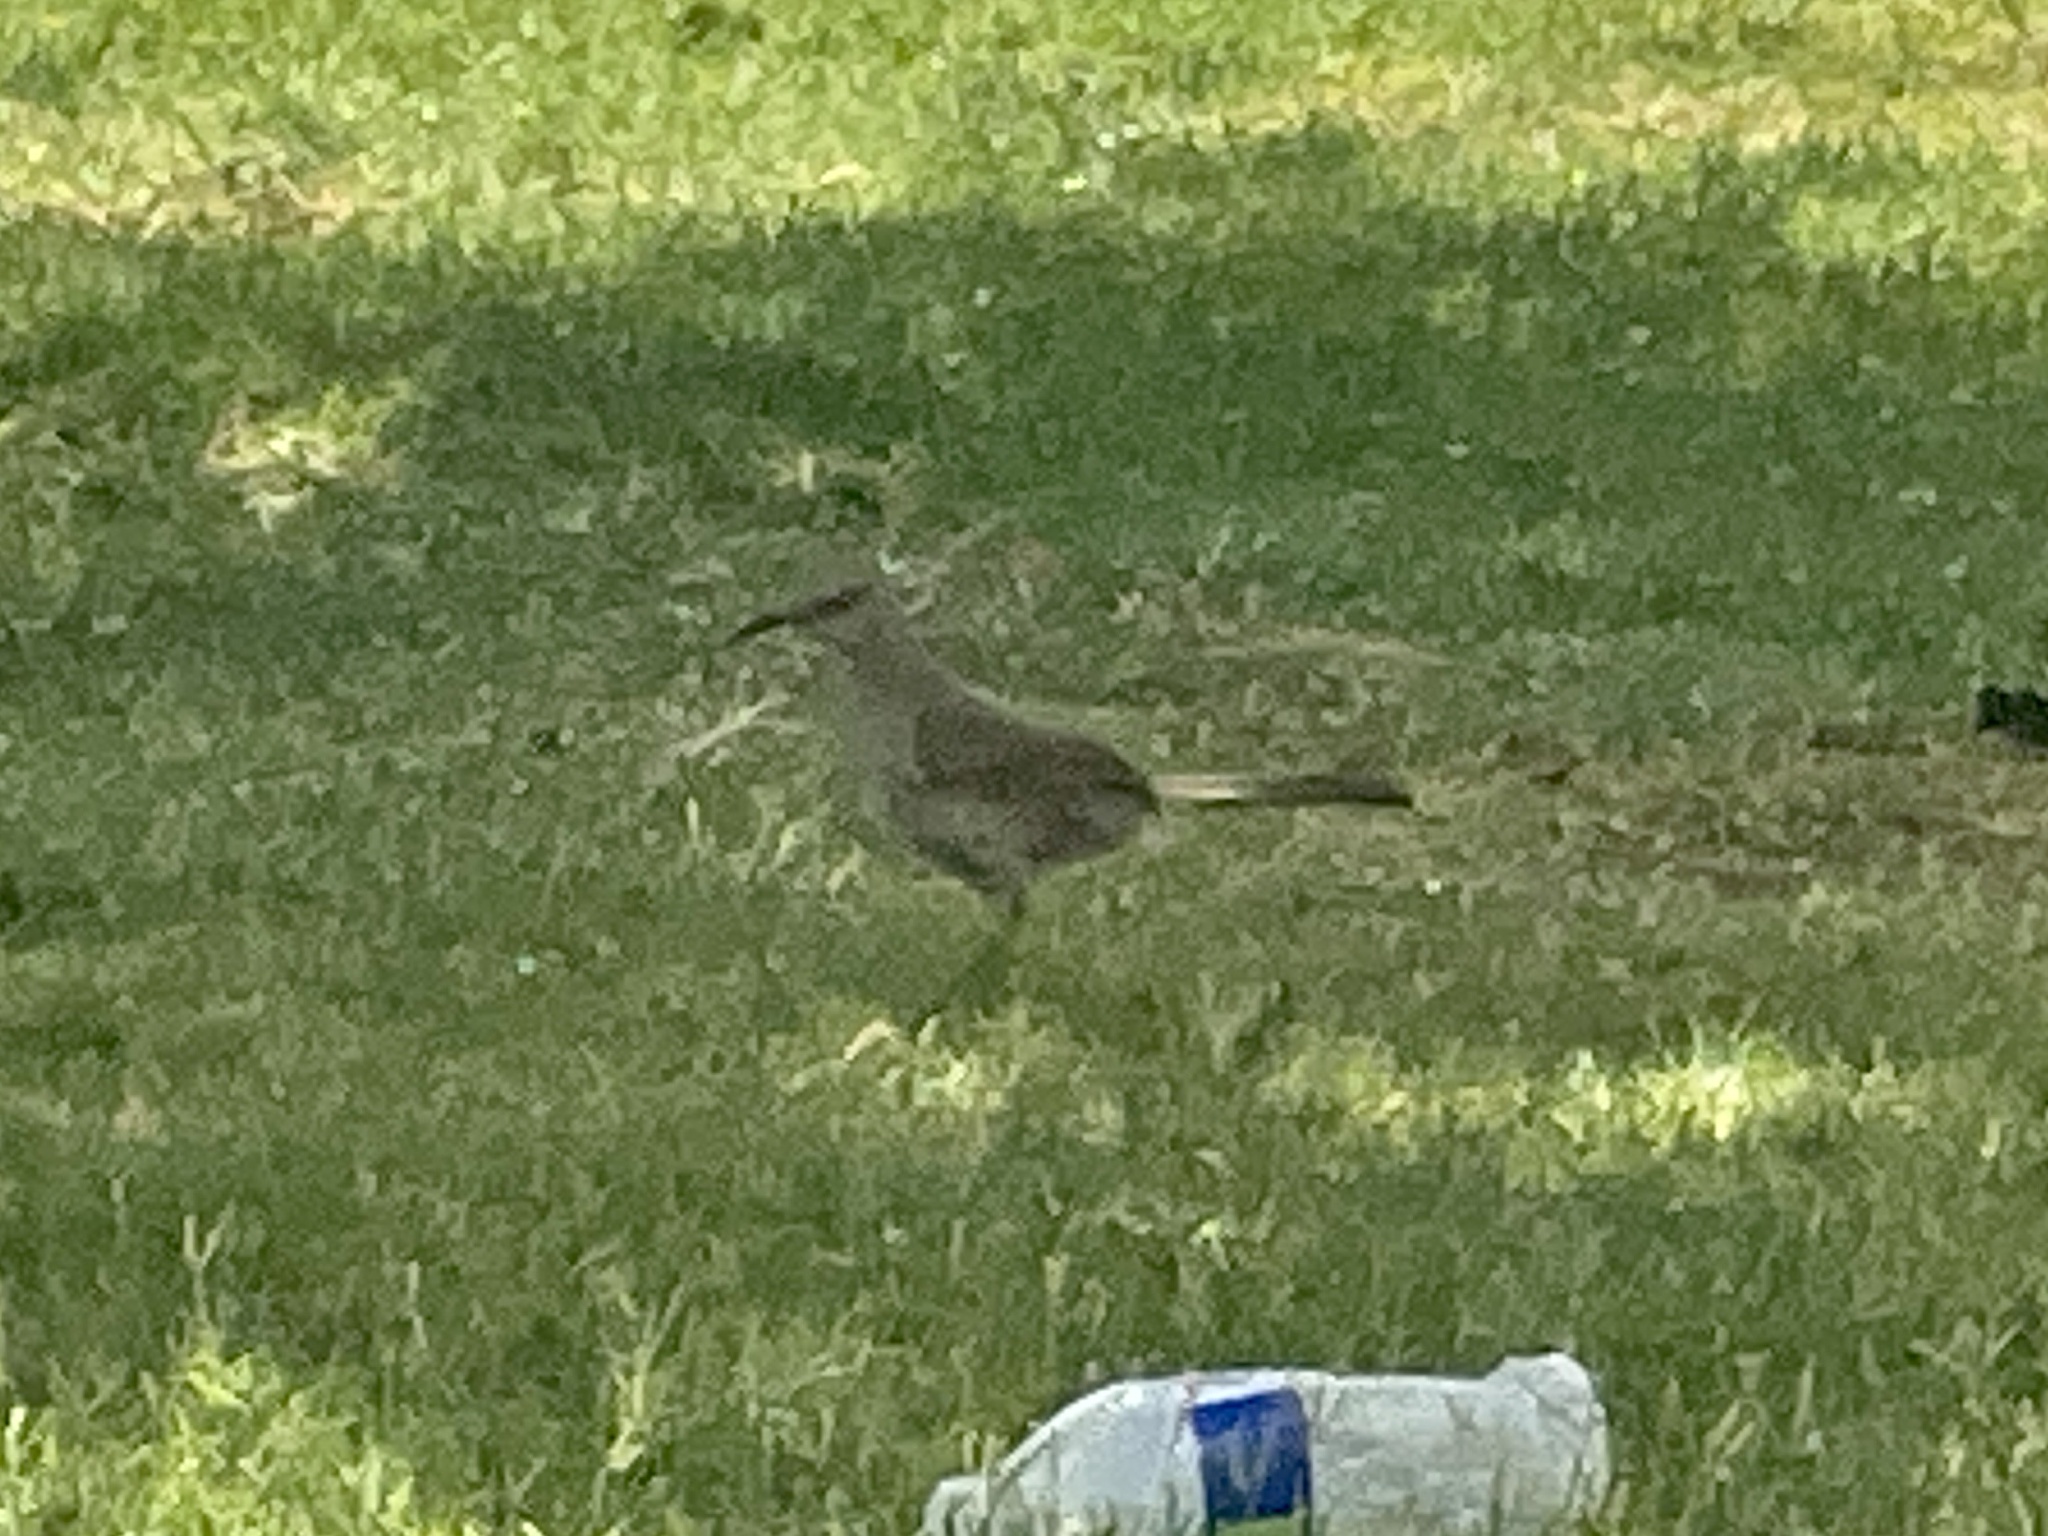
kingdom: Animalia
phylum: Chordata
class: Aves
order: Passeriformes
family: Mimidae
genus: Toxostoma
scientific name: Toxostoma curvirostre
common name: Curve-billed thrasher
